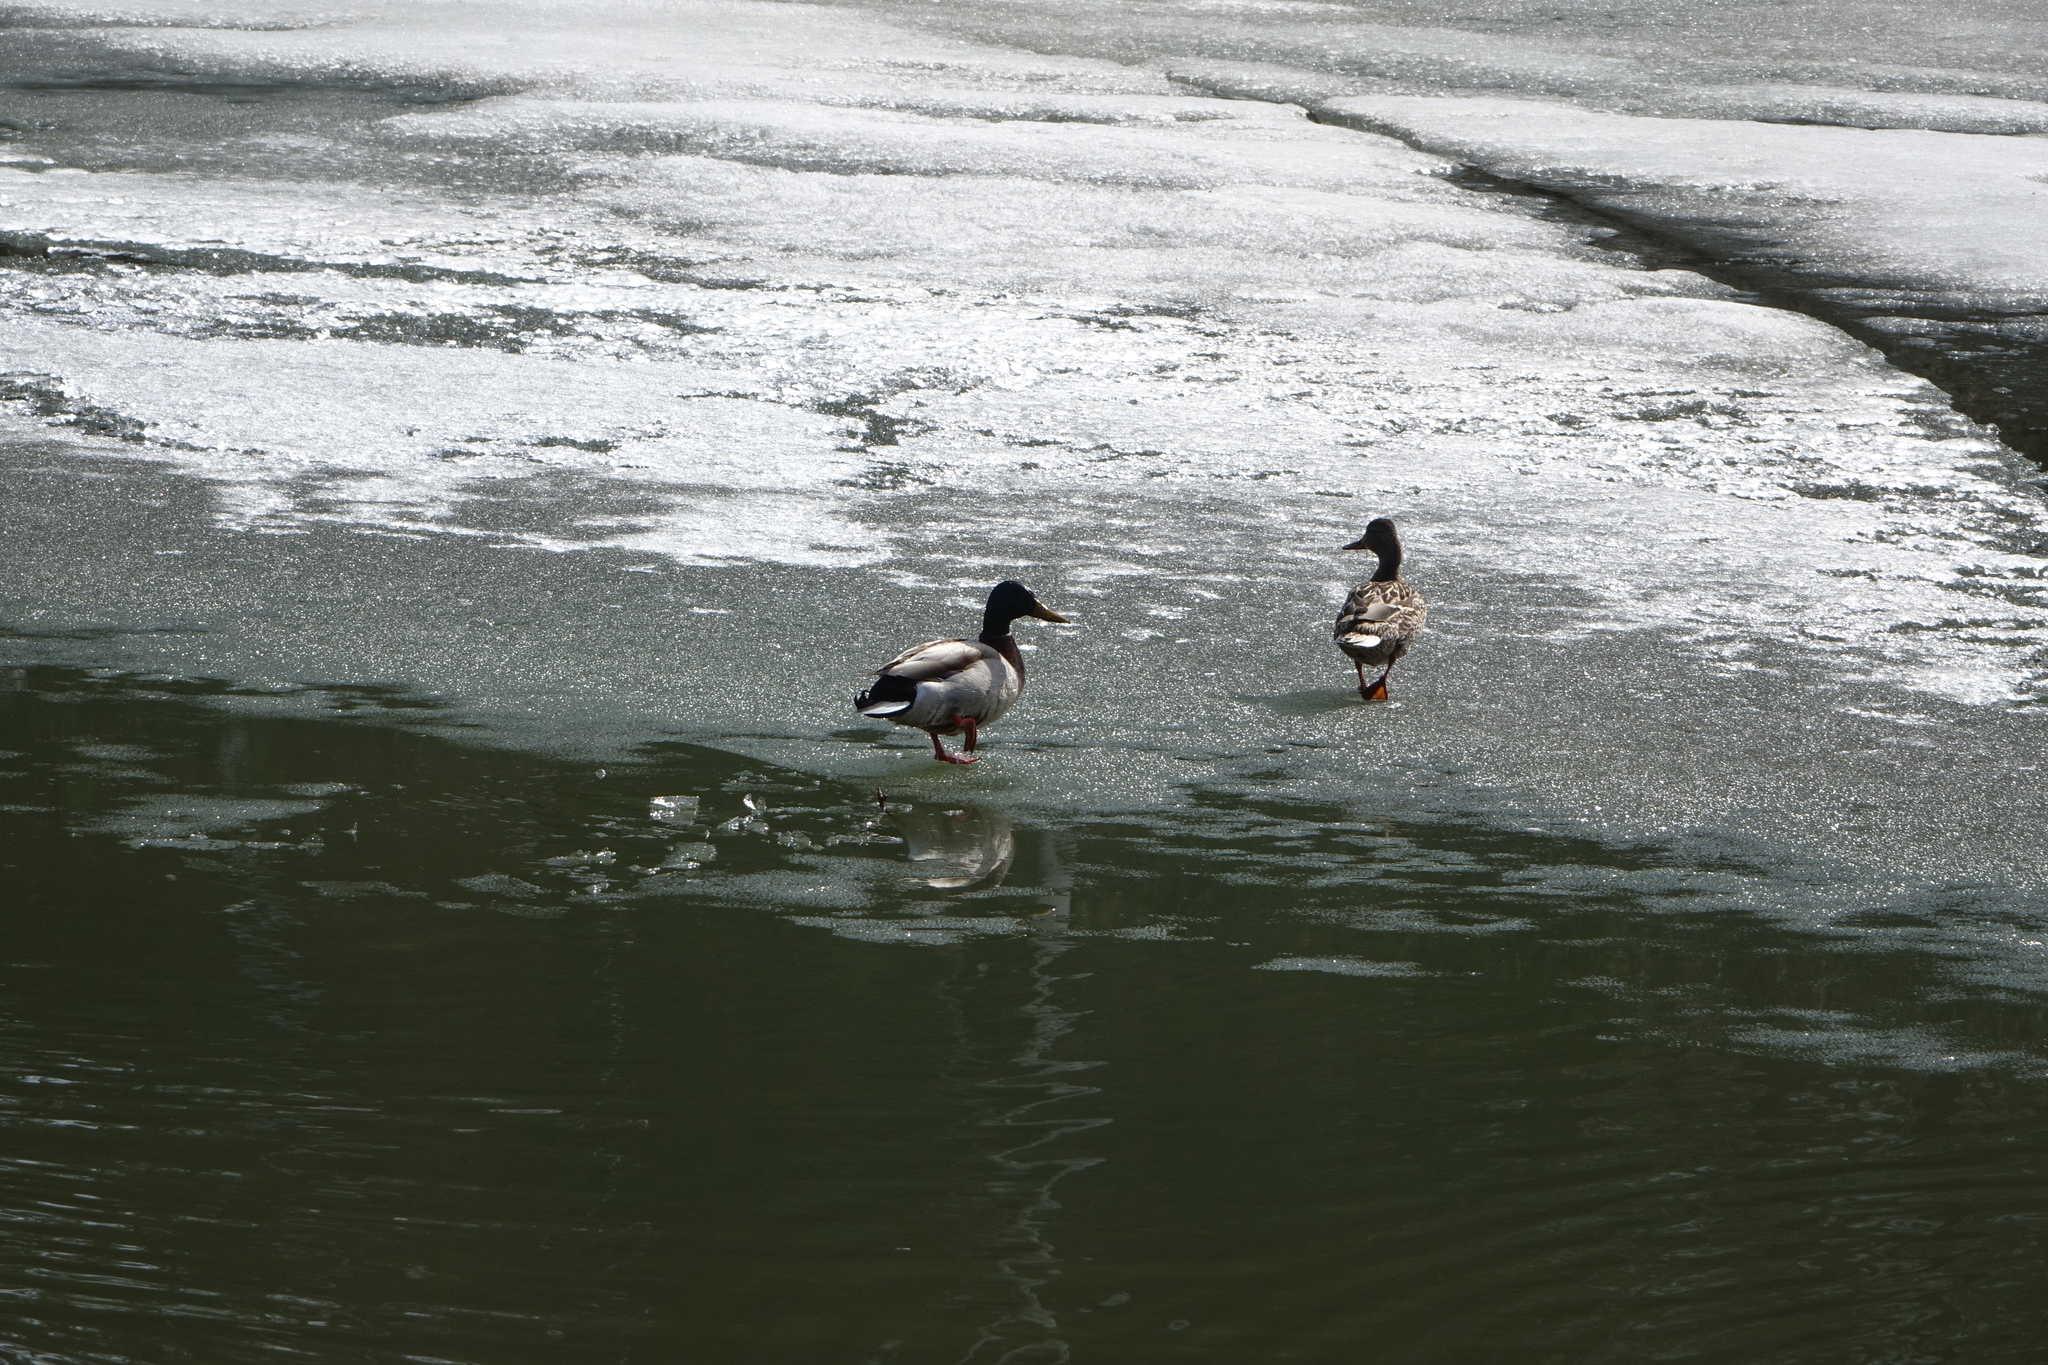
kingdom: Animalia
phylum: Chordata
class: Aves
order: Anseriformes
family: Anatidae
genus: Anas
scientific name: Anas platyrhynchos
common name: Mallard
